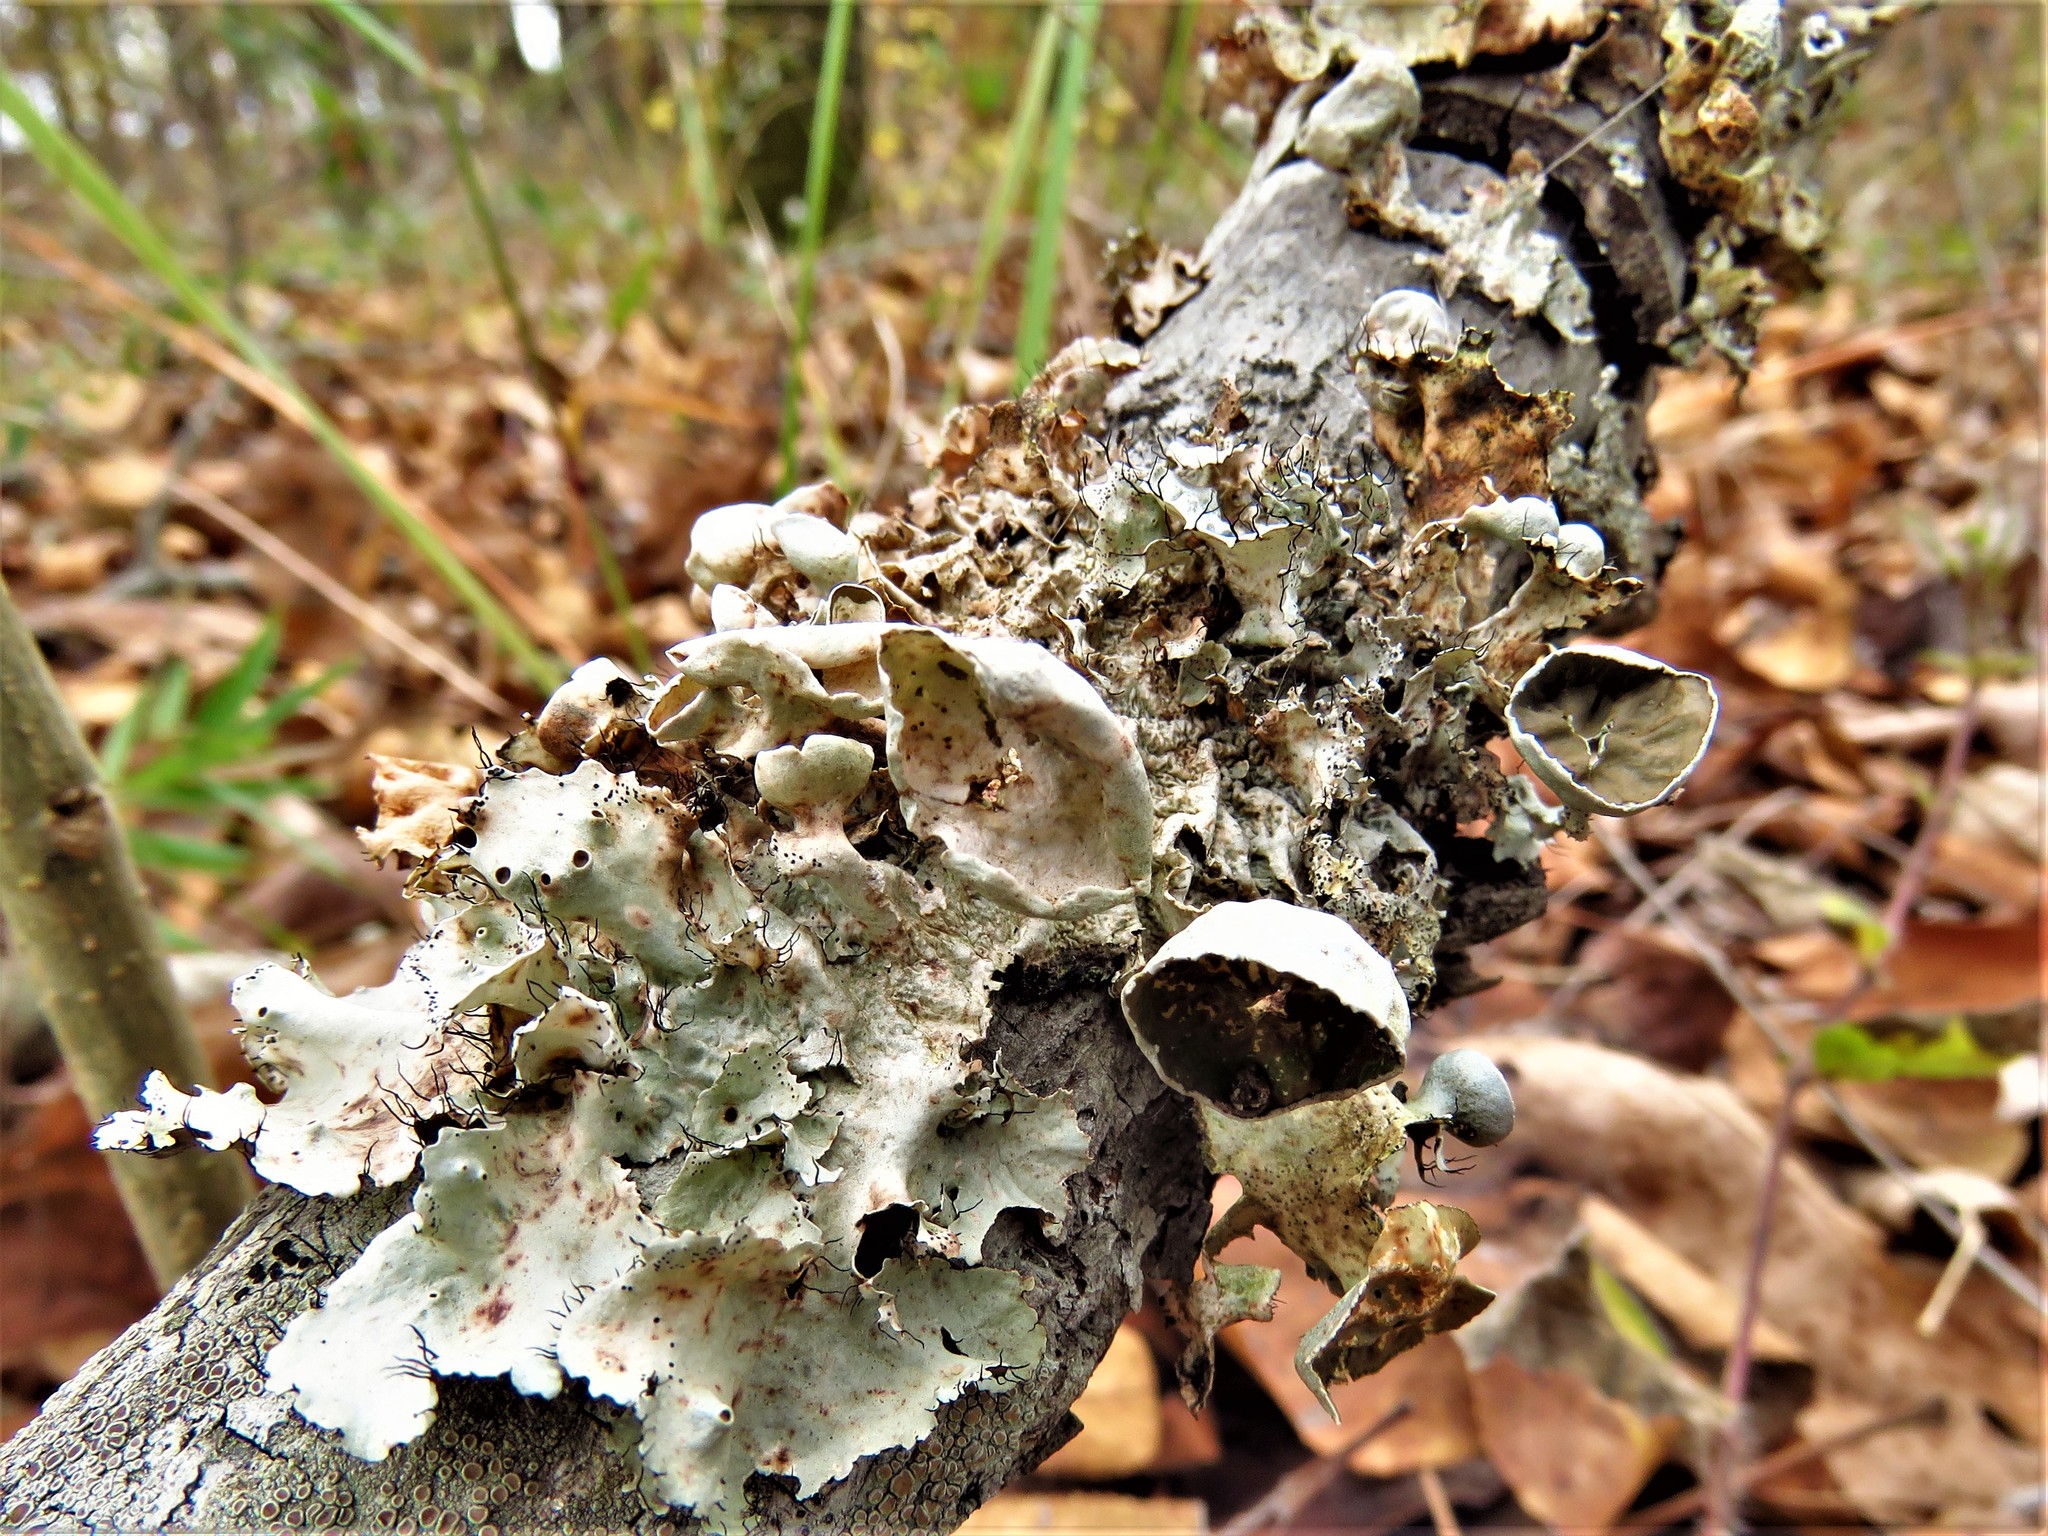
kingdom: Fungi
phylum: Ascomycota
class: Lecanoromycetes
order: Lecanorales
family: Parmeliaceae
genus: Parmotrema
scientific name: Parmotrema perforatum
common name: Perforated ruffle lichen
